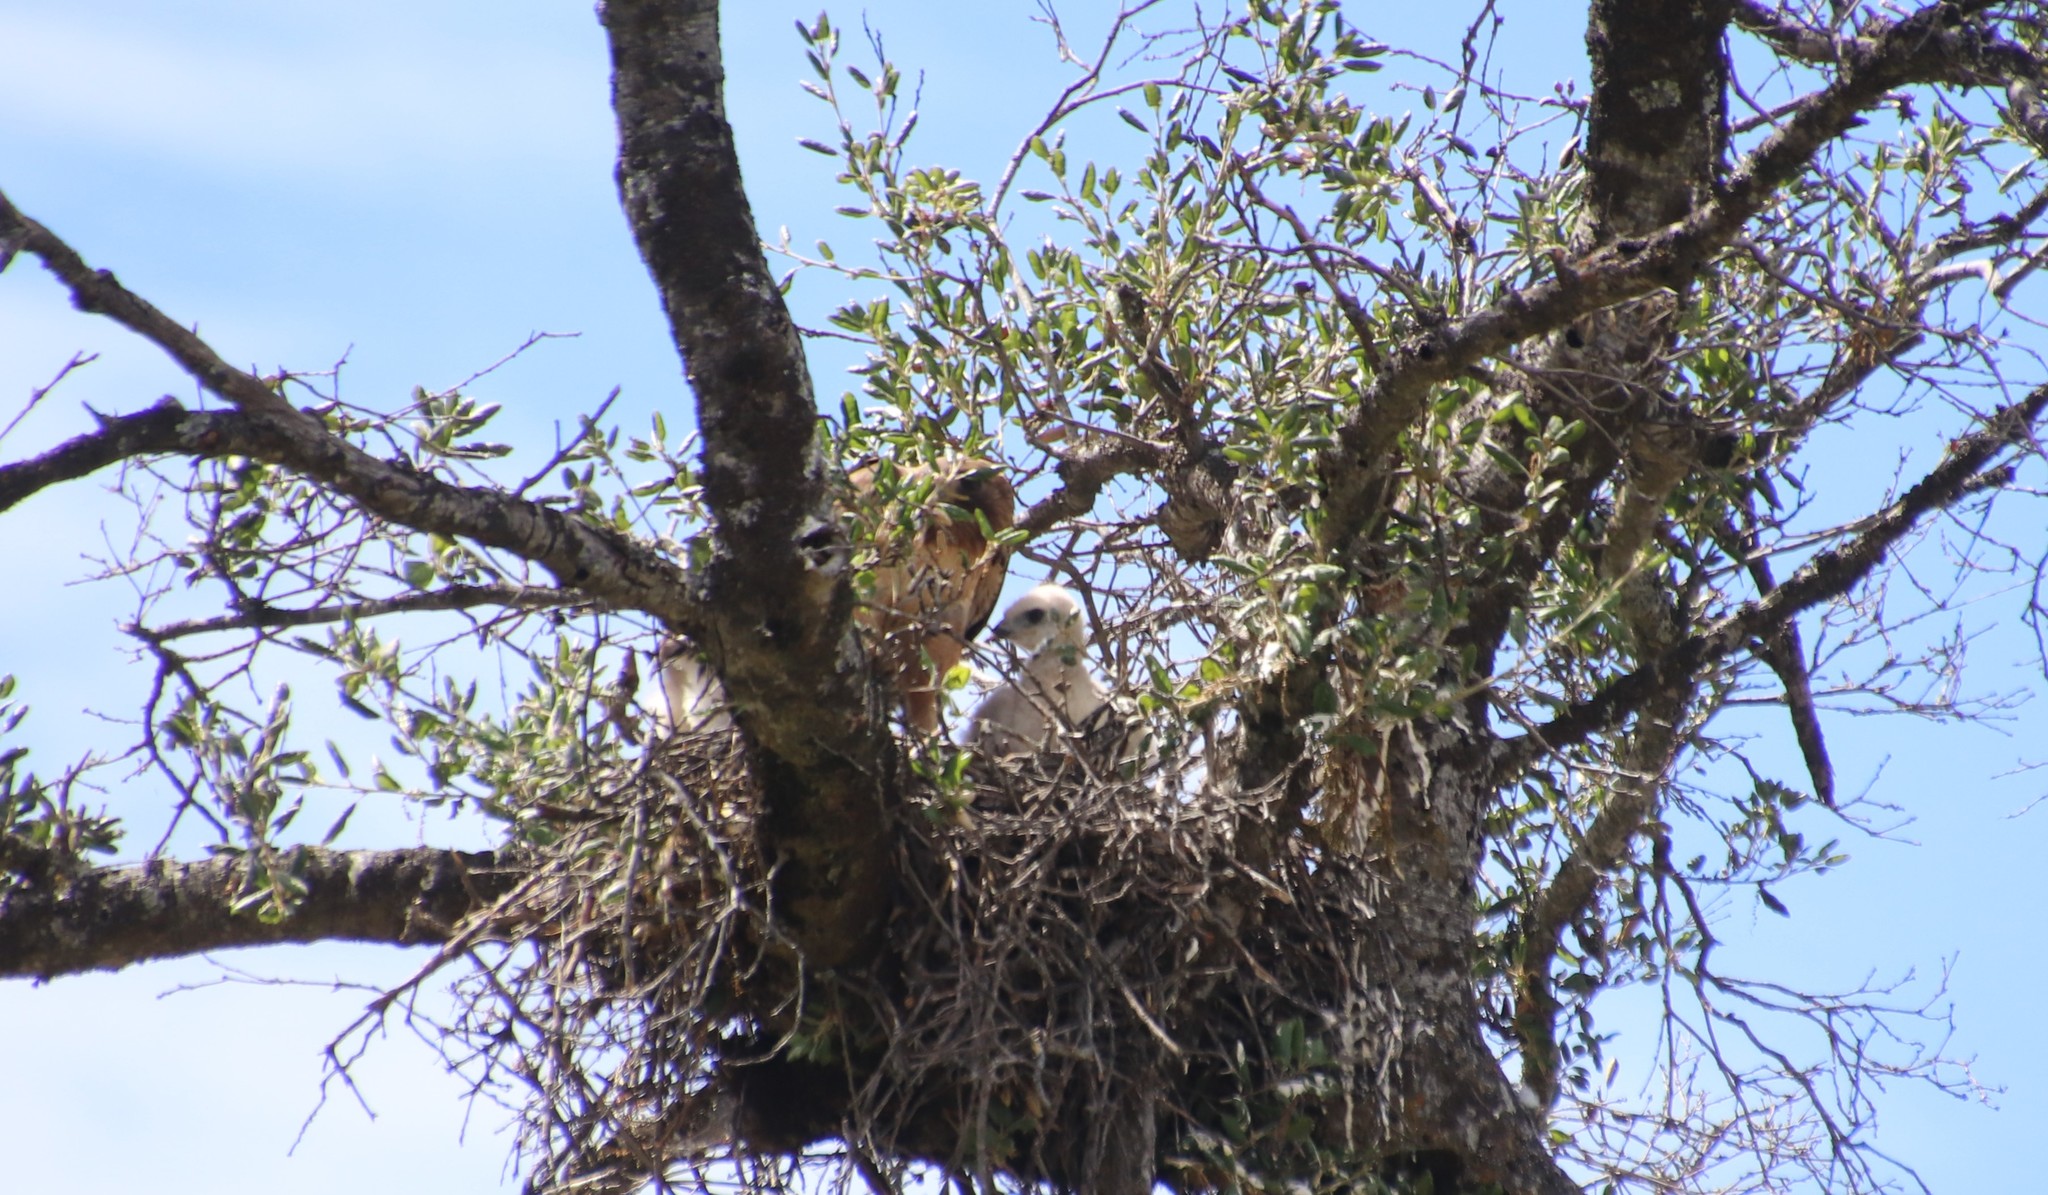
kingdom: Animalia
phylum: Chordata
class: Aves
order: Accipitriformes
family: Accipitridae
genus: Buteo
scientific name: Buteo jamaicensis
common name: Red-tailed hawk
